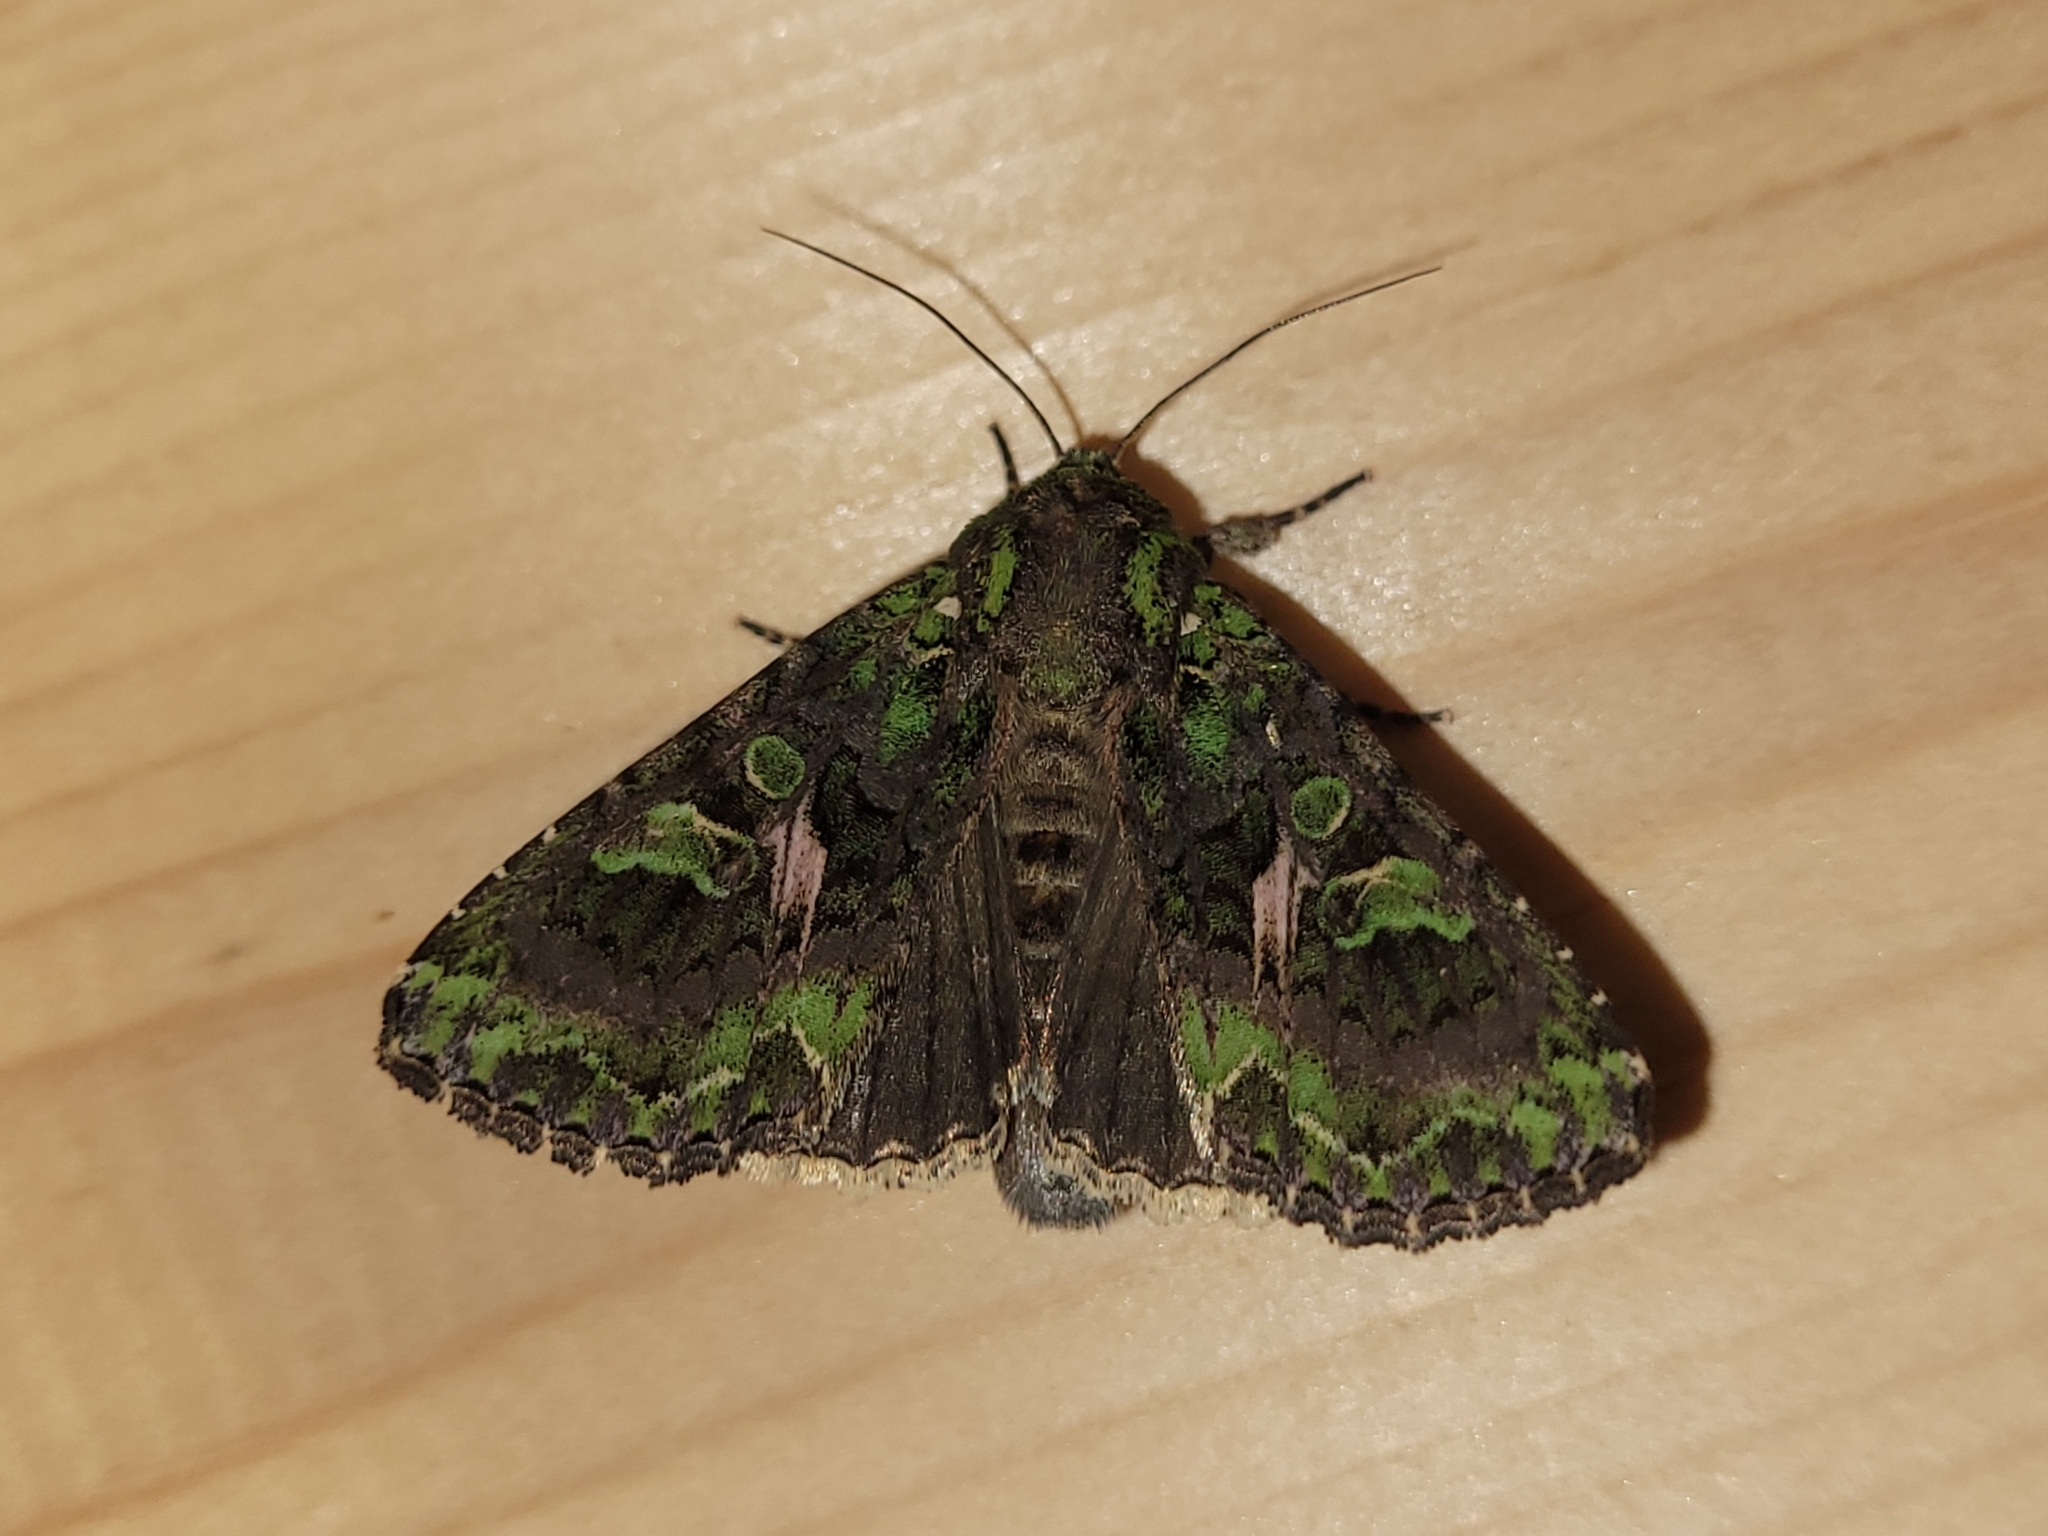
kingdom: Animalia
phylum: Arthropoda
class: Insecta
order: Lepidoptera
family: Noctuidae
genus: Trachea
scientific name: Trachea atriplicis
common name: Orache moth
